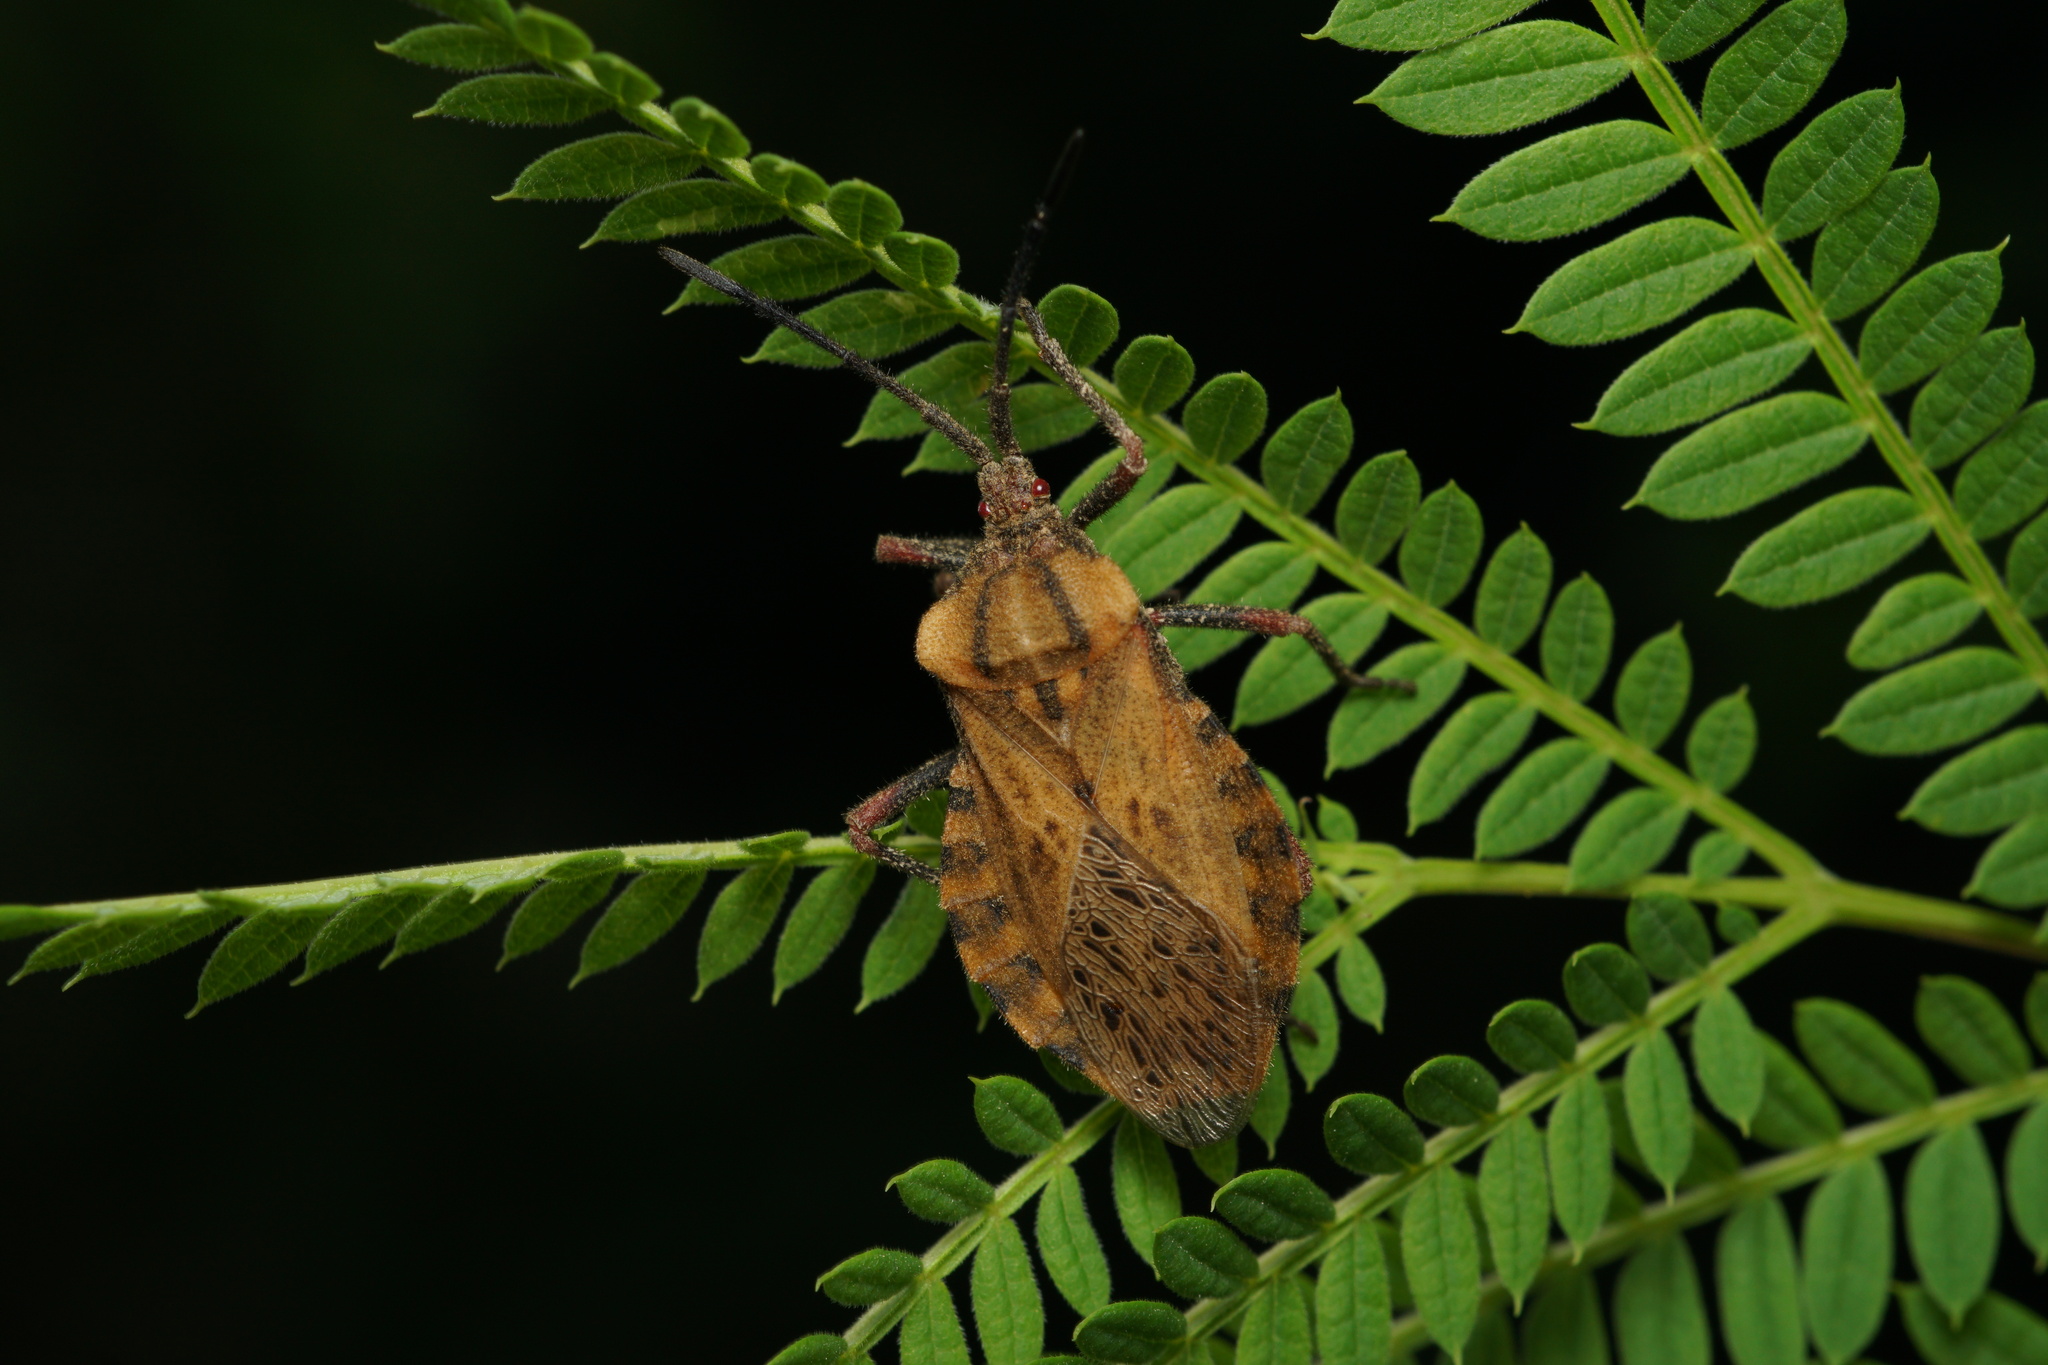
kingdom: Animalia
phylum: Arthropoda
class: Insecta
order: Hemiptera
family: Coreidae
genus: Spartocera
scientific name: Spartocera fusca
